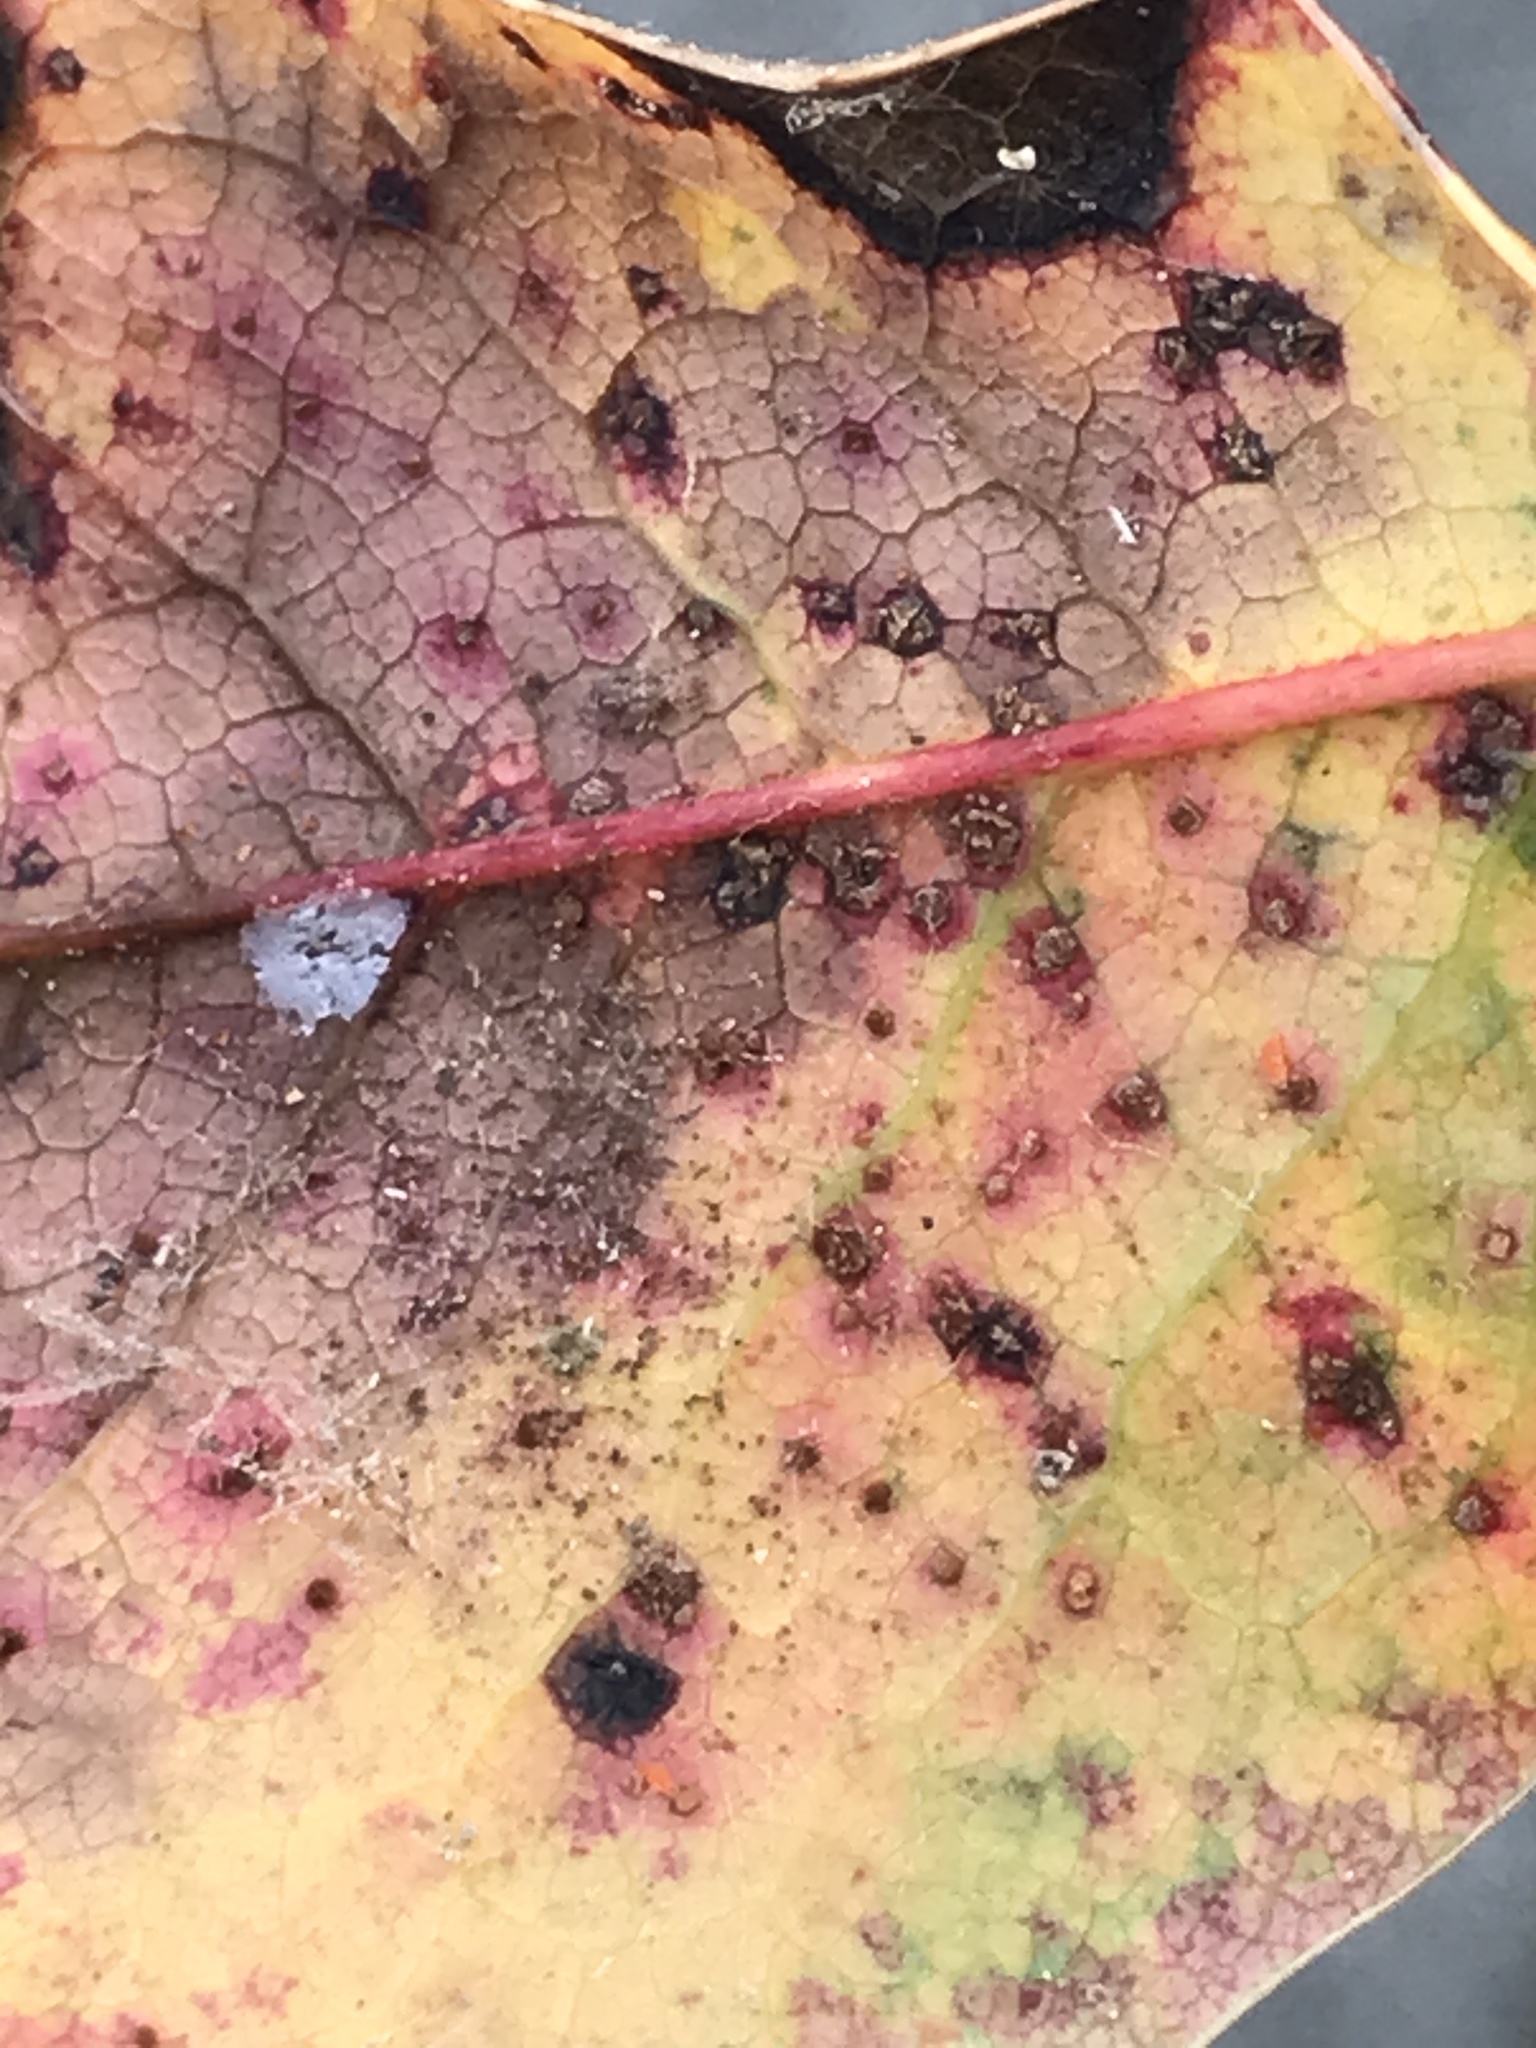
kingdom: Fungi
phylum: Basidiomycota
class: Pucciniomycetes
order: Pucciniales
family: Pucciniaceae
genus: Cumminsiella
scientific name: Cumminsiella mirabilissima
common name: Mahonia rust
